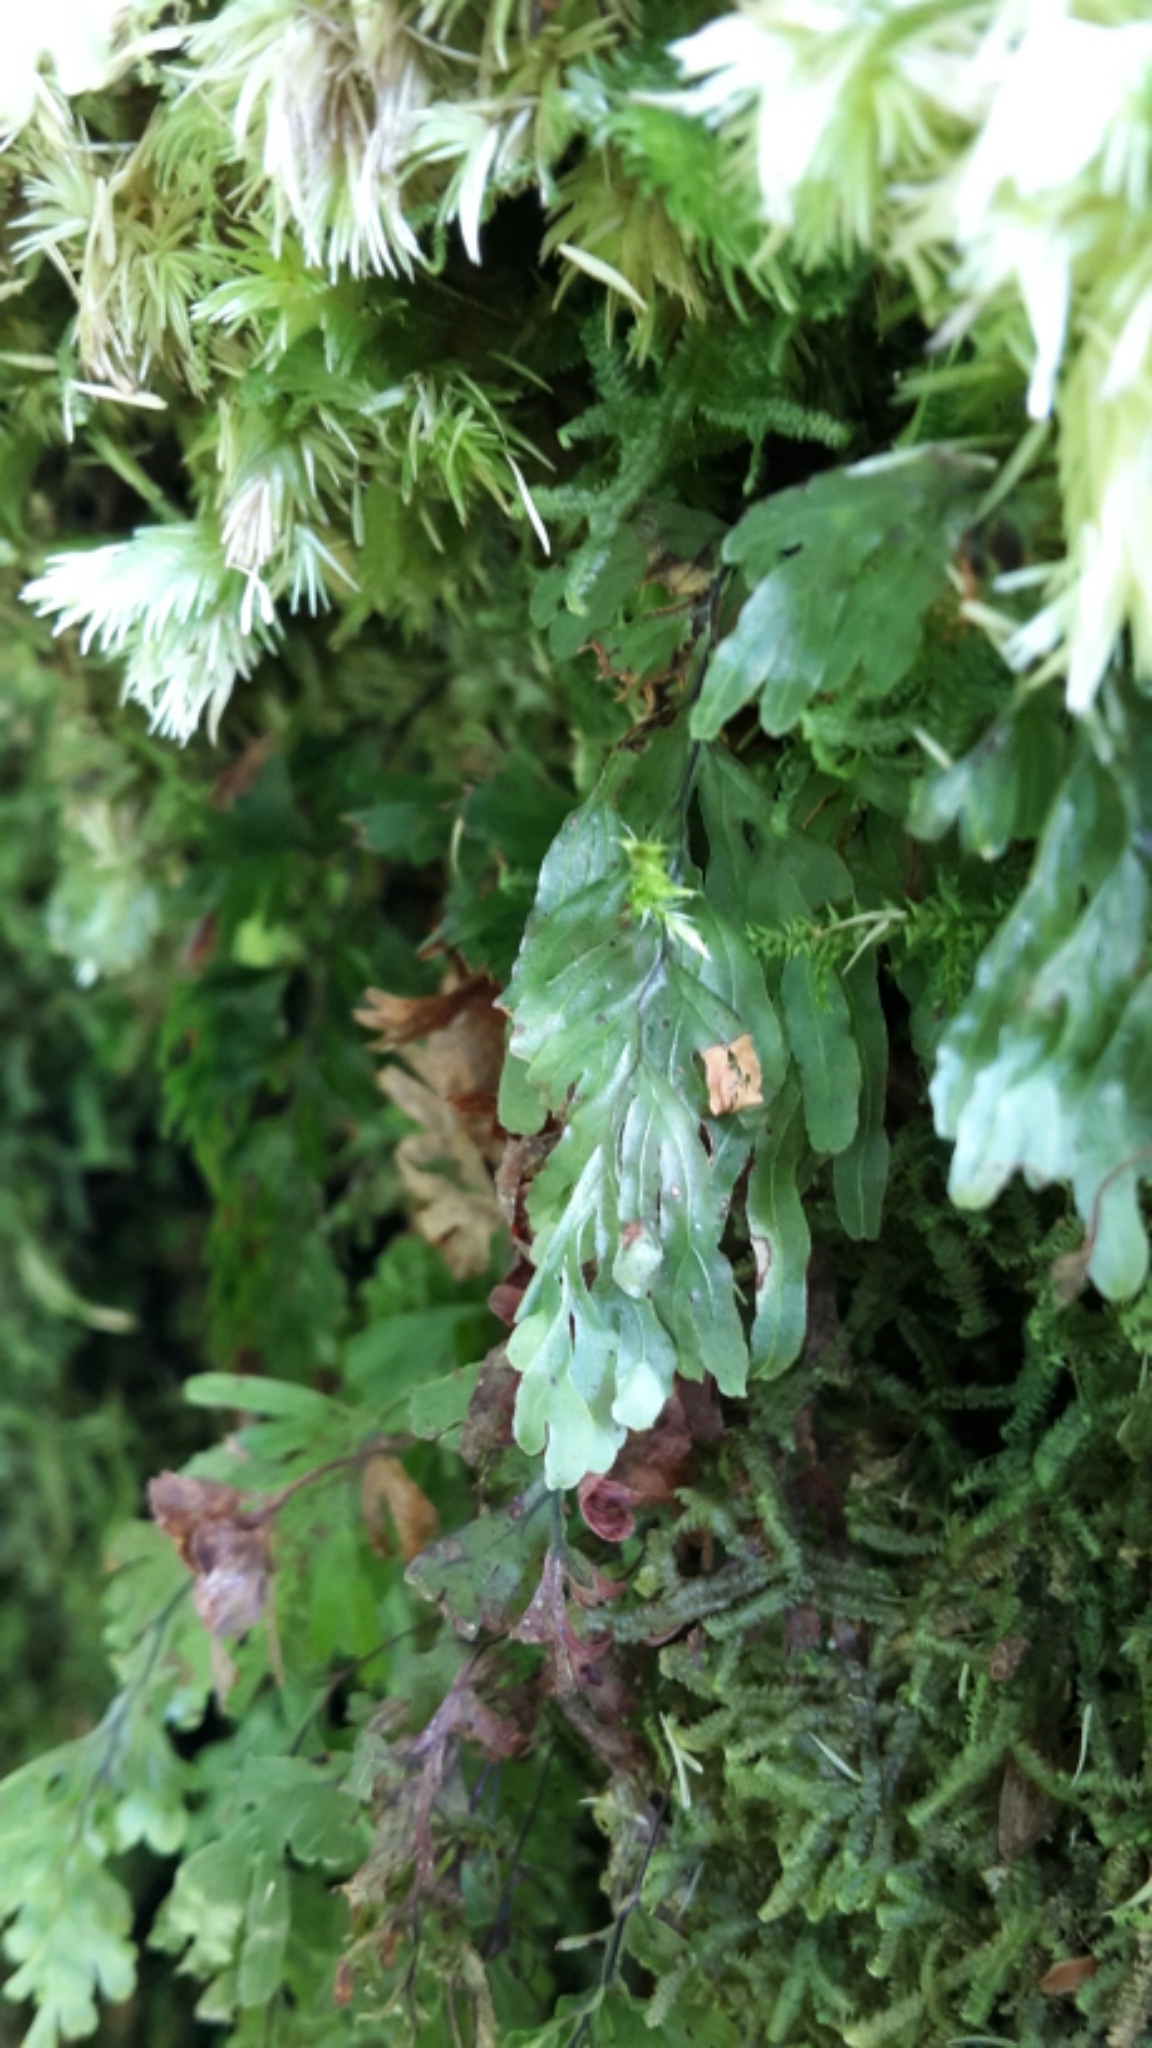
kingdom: Plantae
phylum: Tracheophyta
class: Polypodiopsida
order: Hymenophyllales
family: Hymenophyllaceae
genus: Hymenophyllum
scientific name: Hymenophyllum rarum
